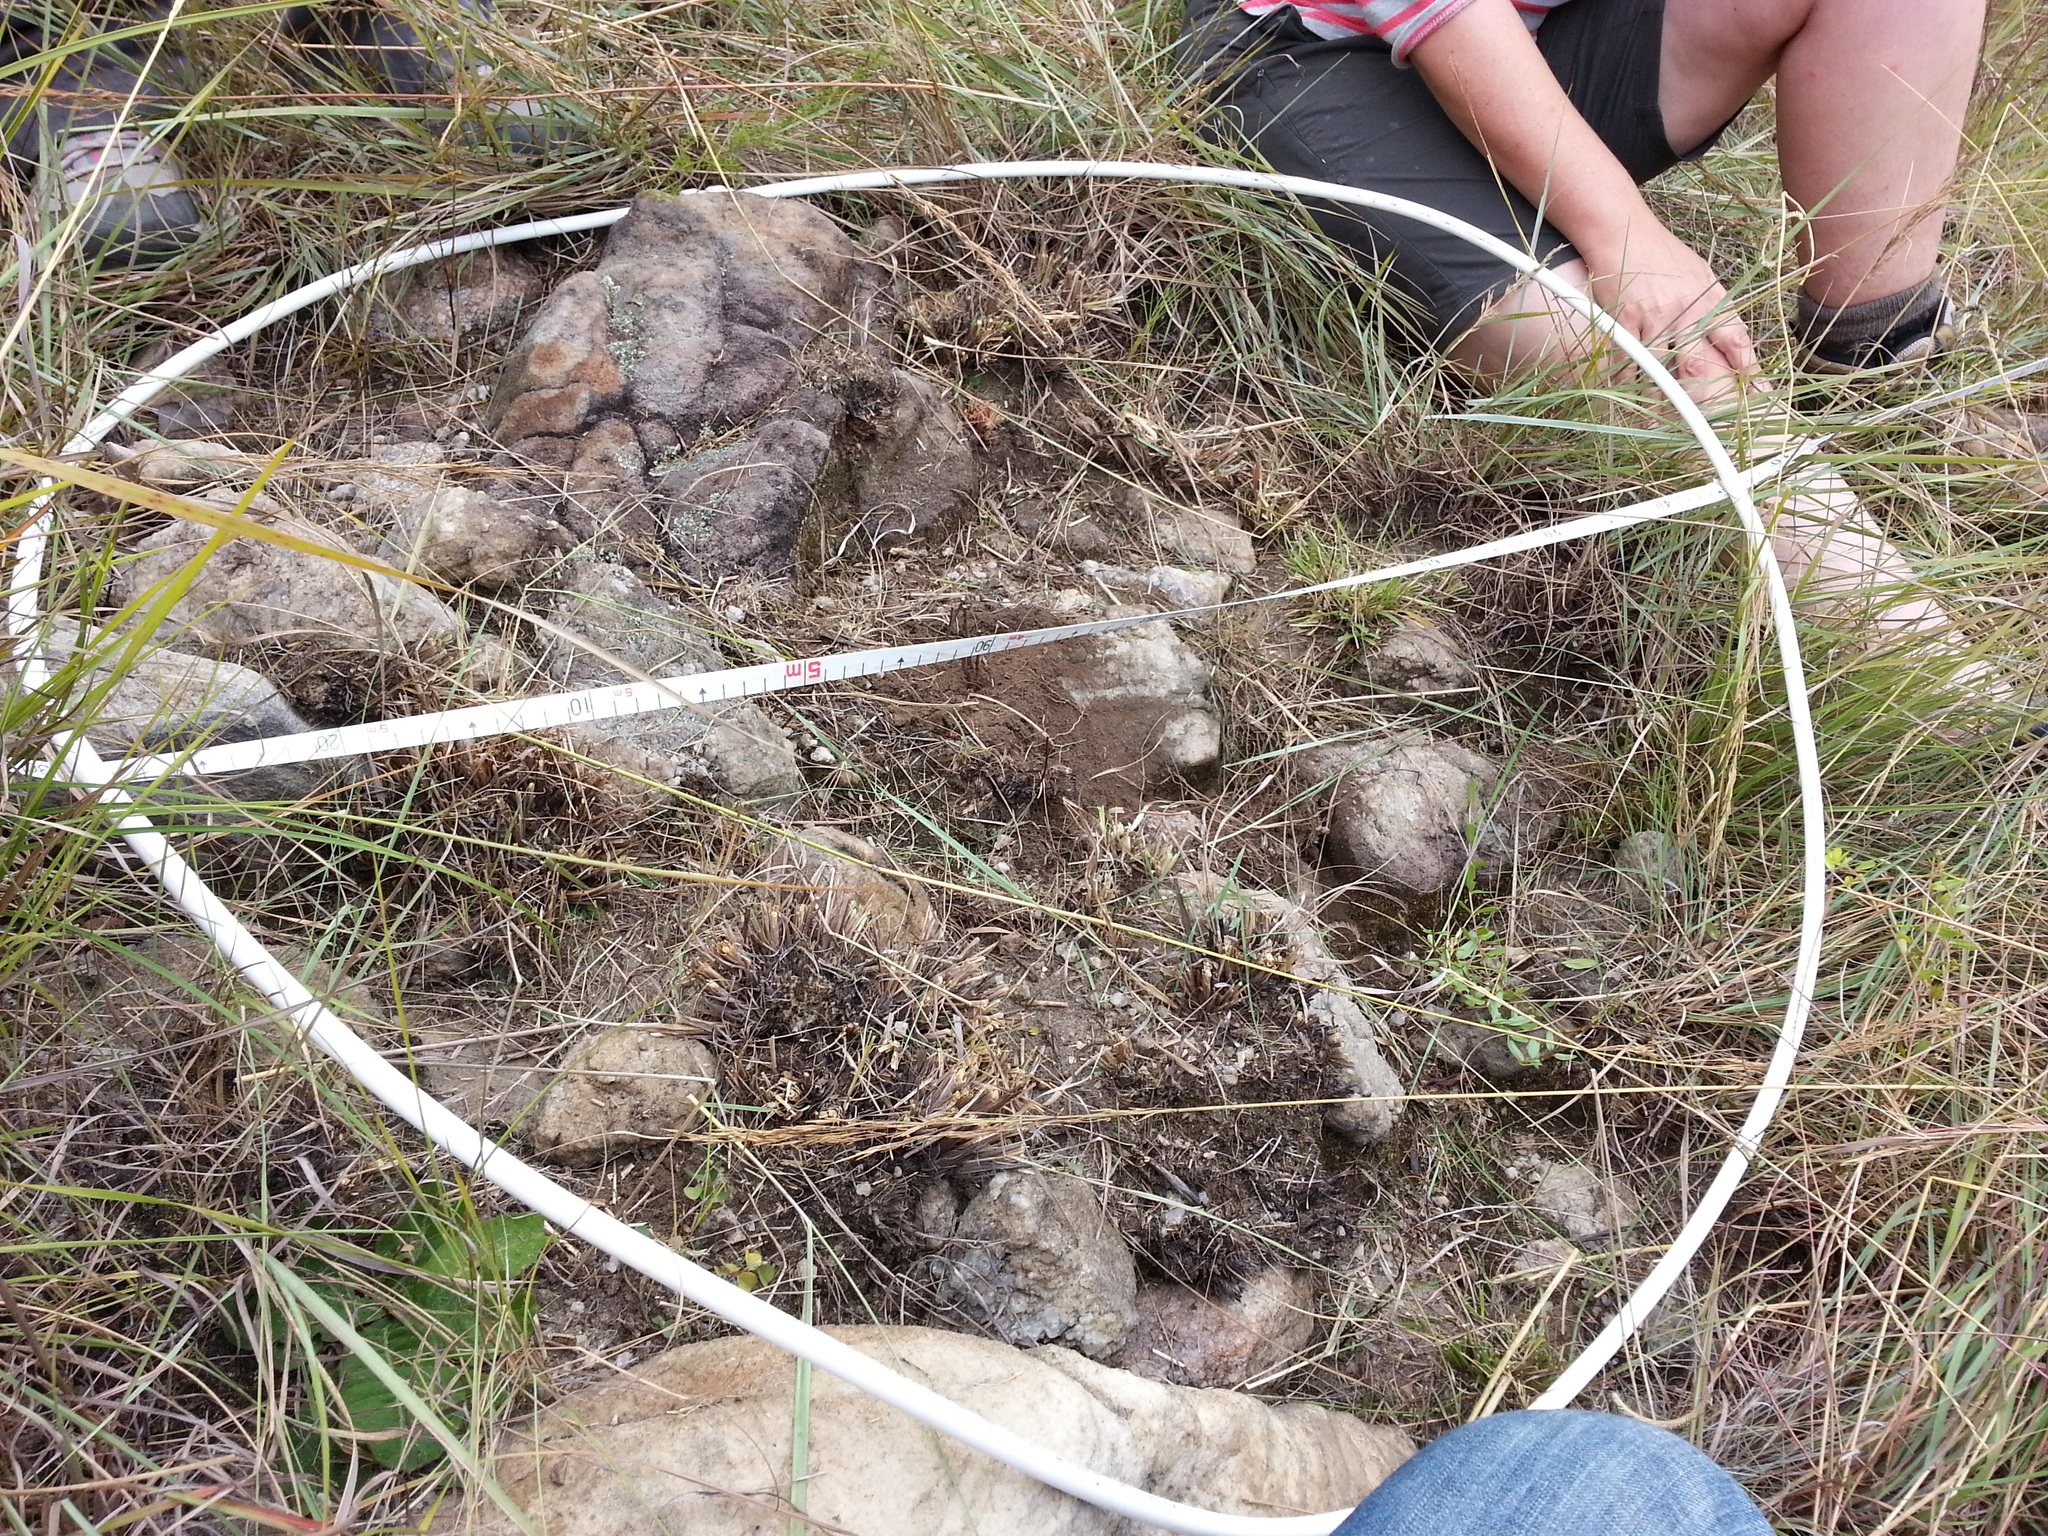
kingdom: Plantae
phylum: Tracheophyta
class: Liliopsida
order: Poales
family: Poaceae
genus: Loudetia
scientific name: Loudetia simplex
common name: Common russet grass
